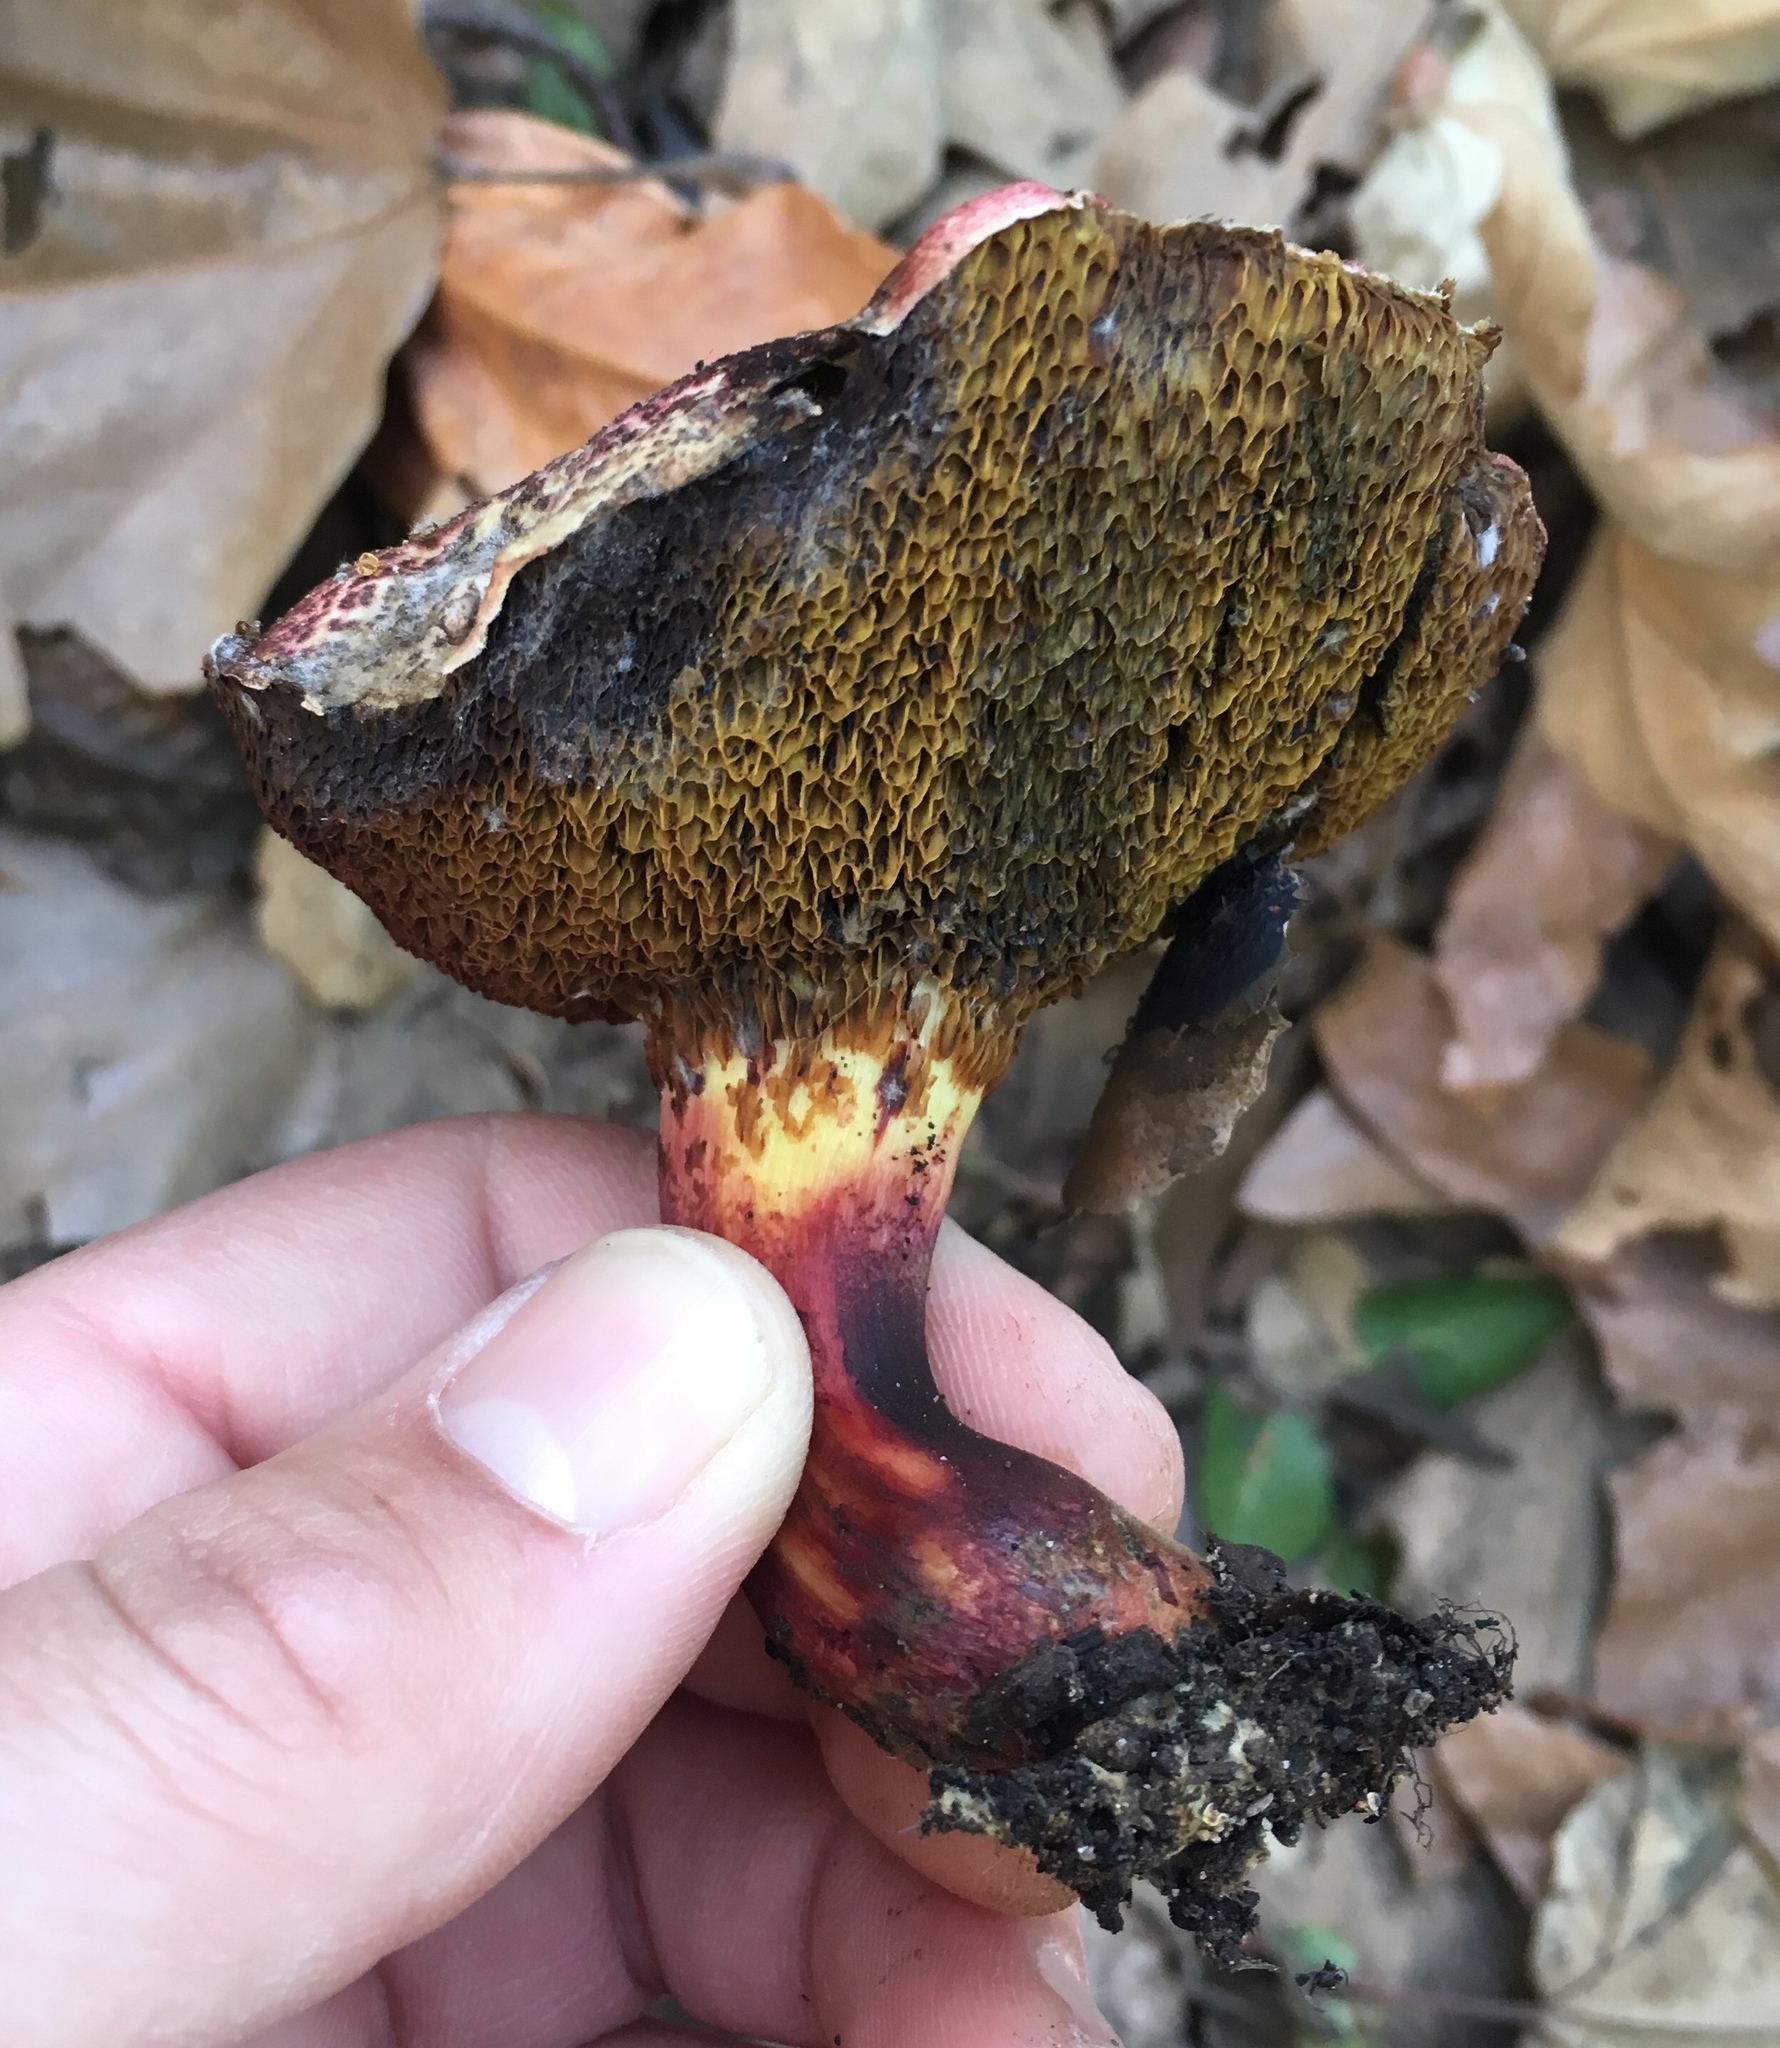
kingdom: Fungi
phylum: Basidiomycota
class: Agaricomycetes
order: Boletales
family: Boletaceae
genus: Xerocomellus
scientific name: Xerocomellus dryophilus
